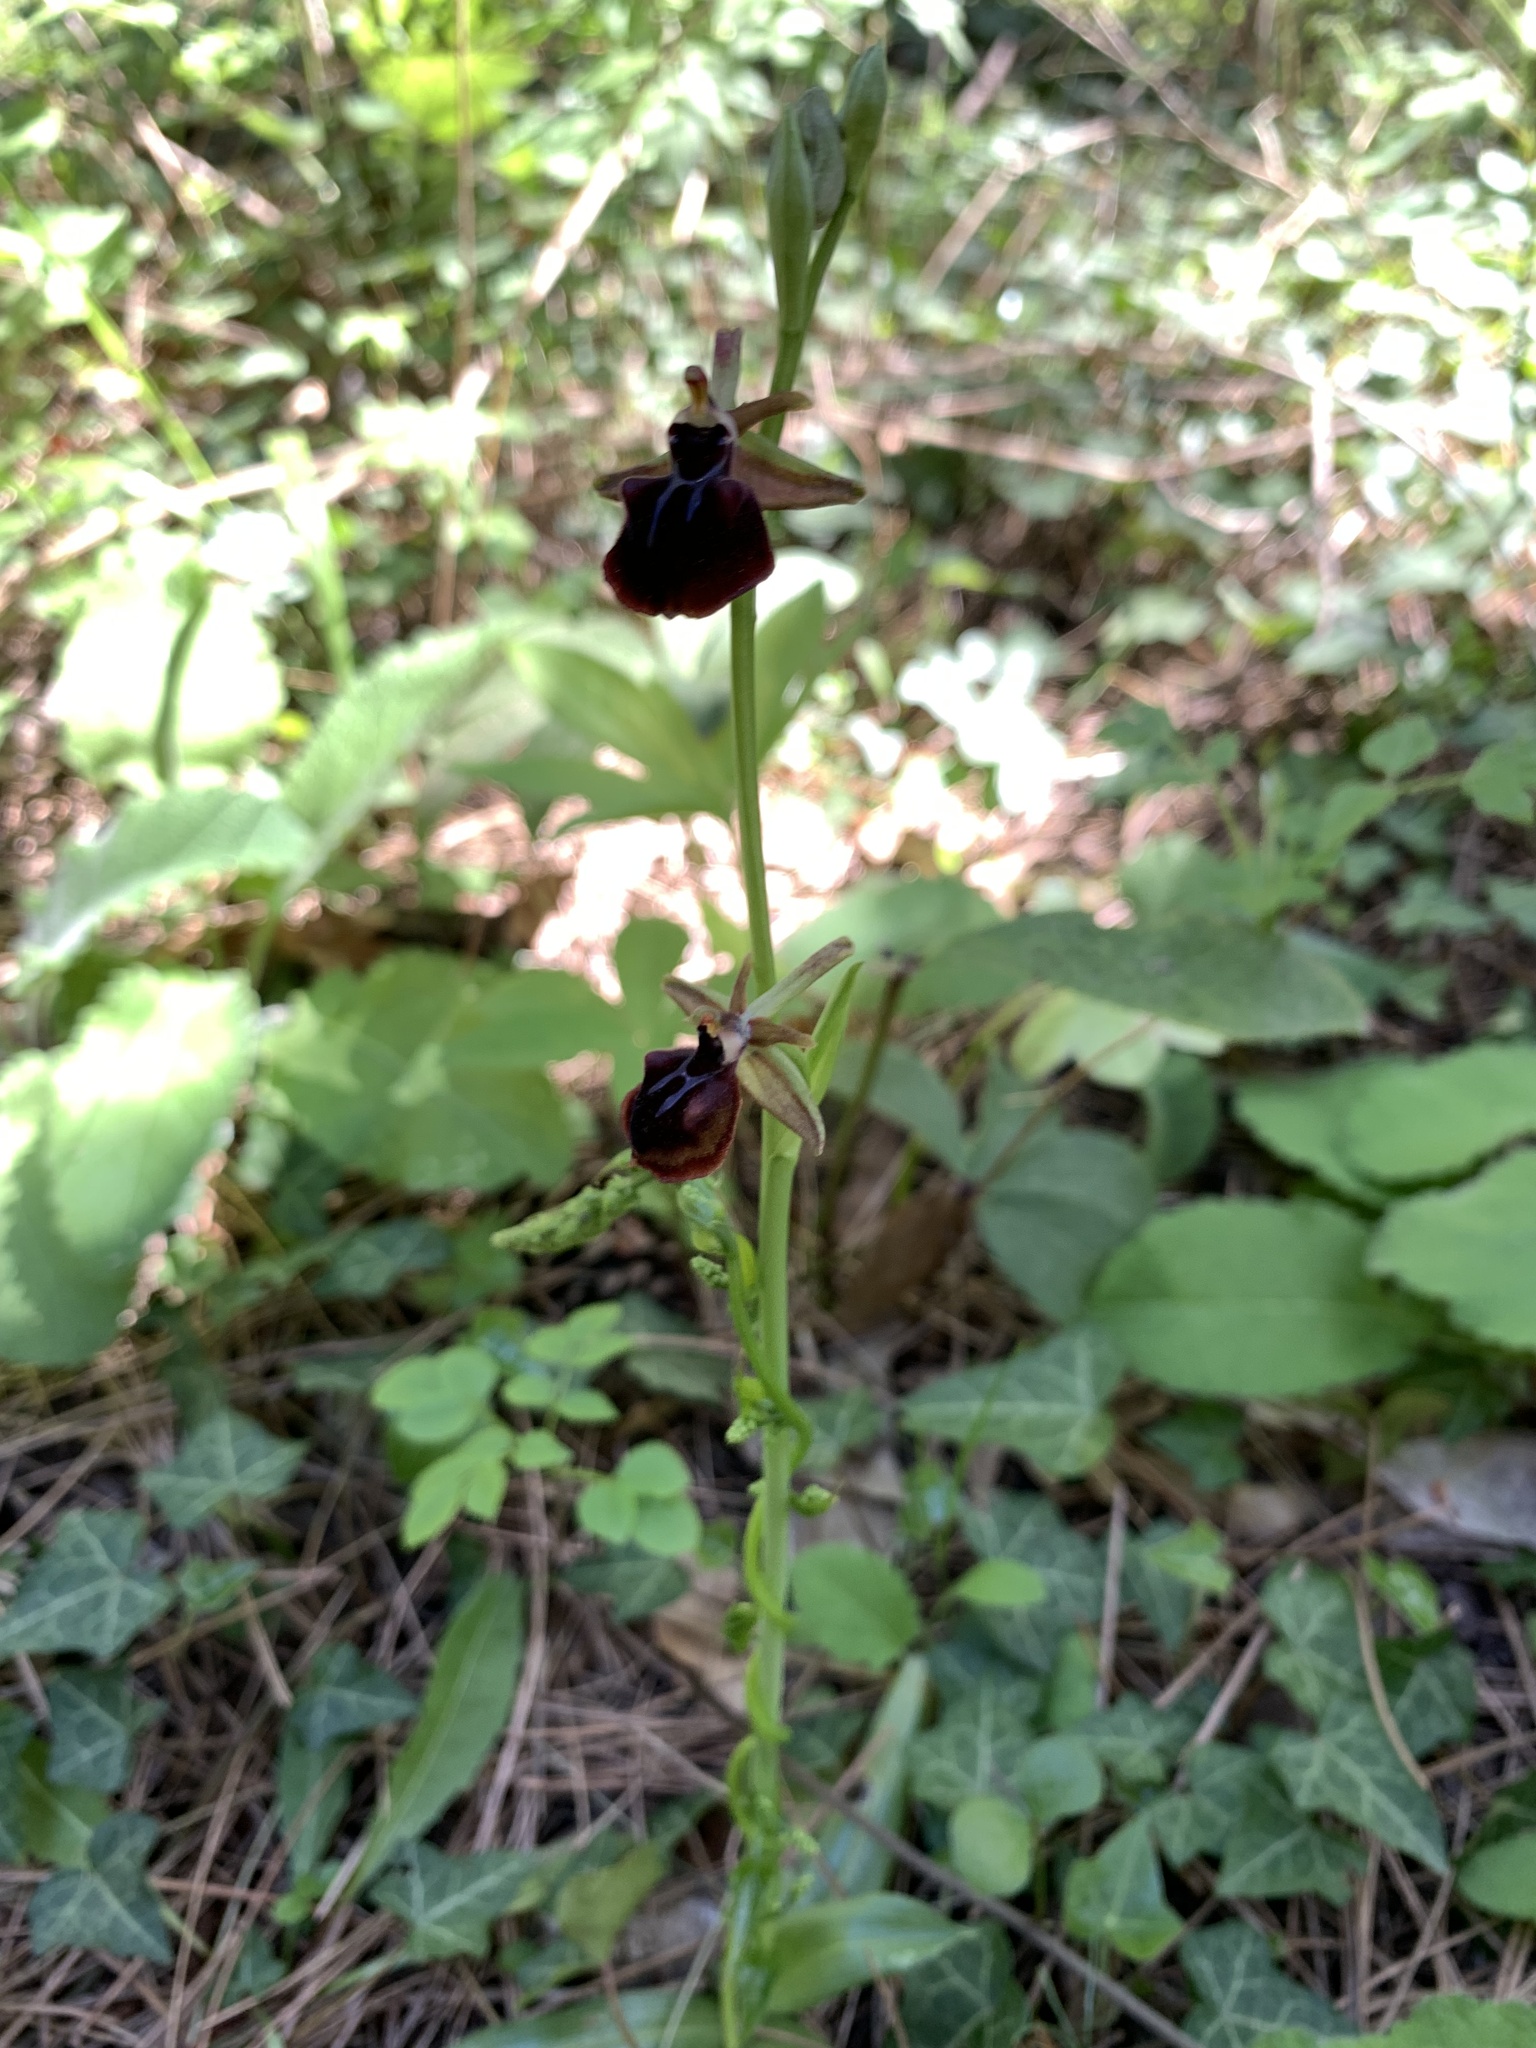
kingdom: Plantae
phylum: Tracheophyta
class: Liliopsida
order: Asparagales
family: Orchidaceae
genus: Ophrys
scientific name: Ophrys sphegodes
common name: Early spider-orchid
